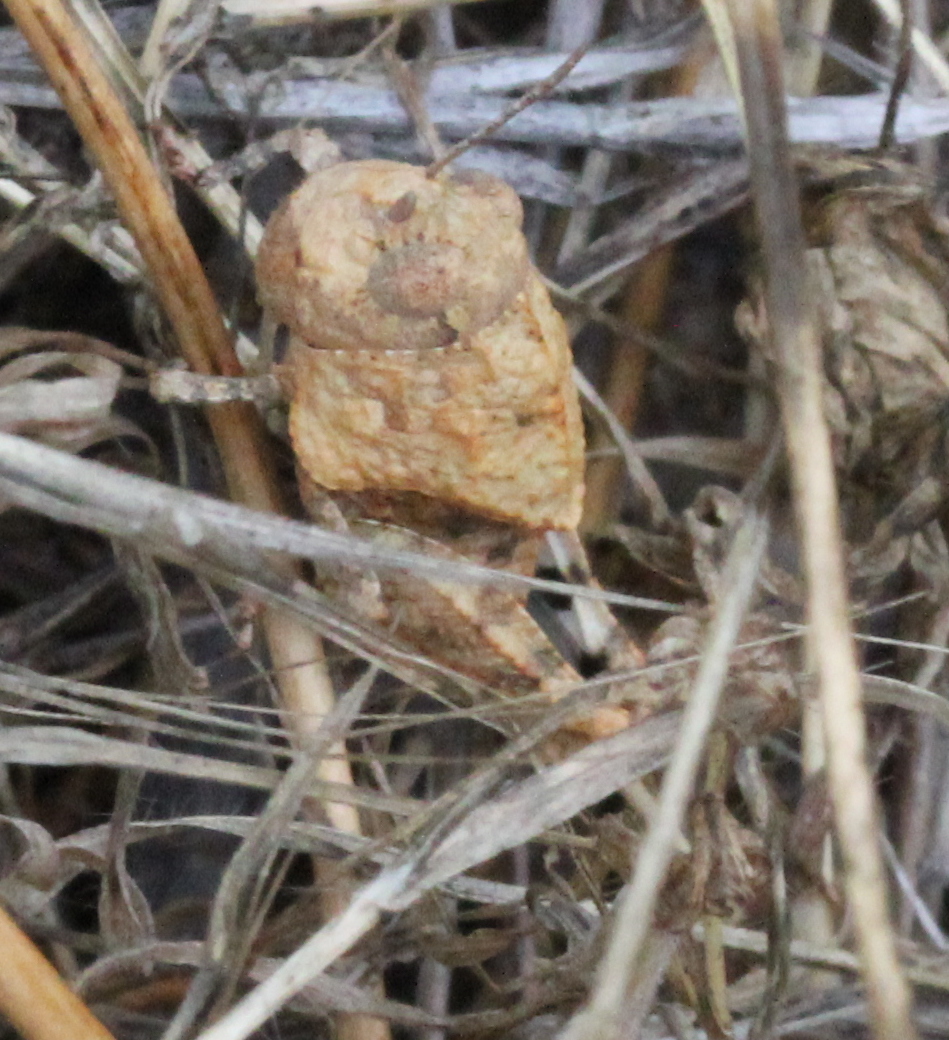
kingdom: Animalia
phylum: Arthropoda
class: Insecta
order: Orthoptera
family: Acrididae
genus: Leprus
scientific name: Leprus intermedius
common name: Saussure's blue-winged grasshopper
